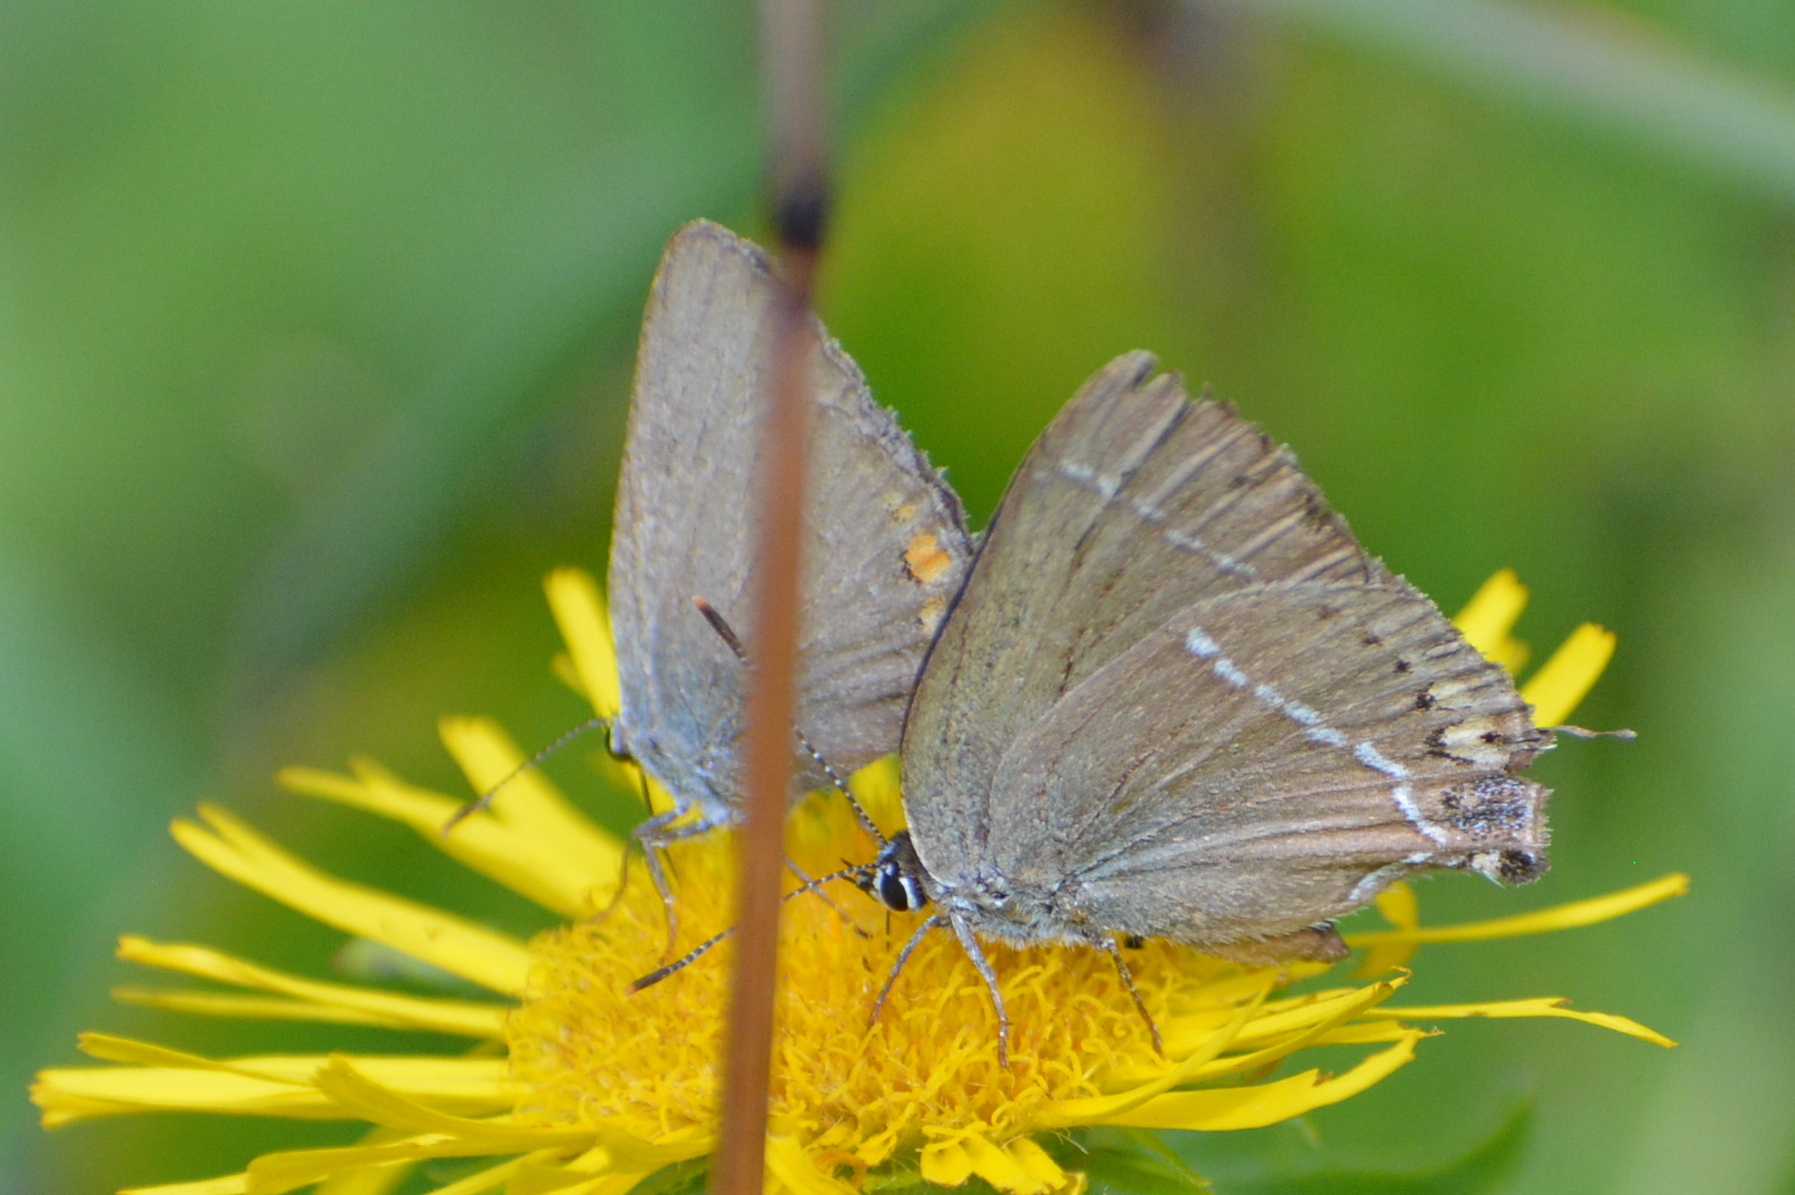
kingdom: Animalia
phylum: Arthropoda
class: Insecta
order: Lepidoptera
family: Lycaenidae
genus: Tuttiola
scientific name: Tuttiola spini
